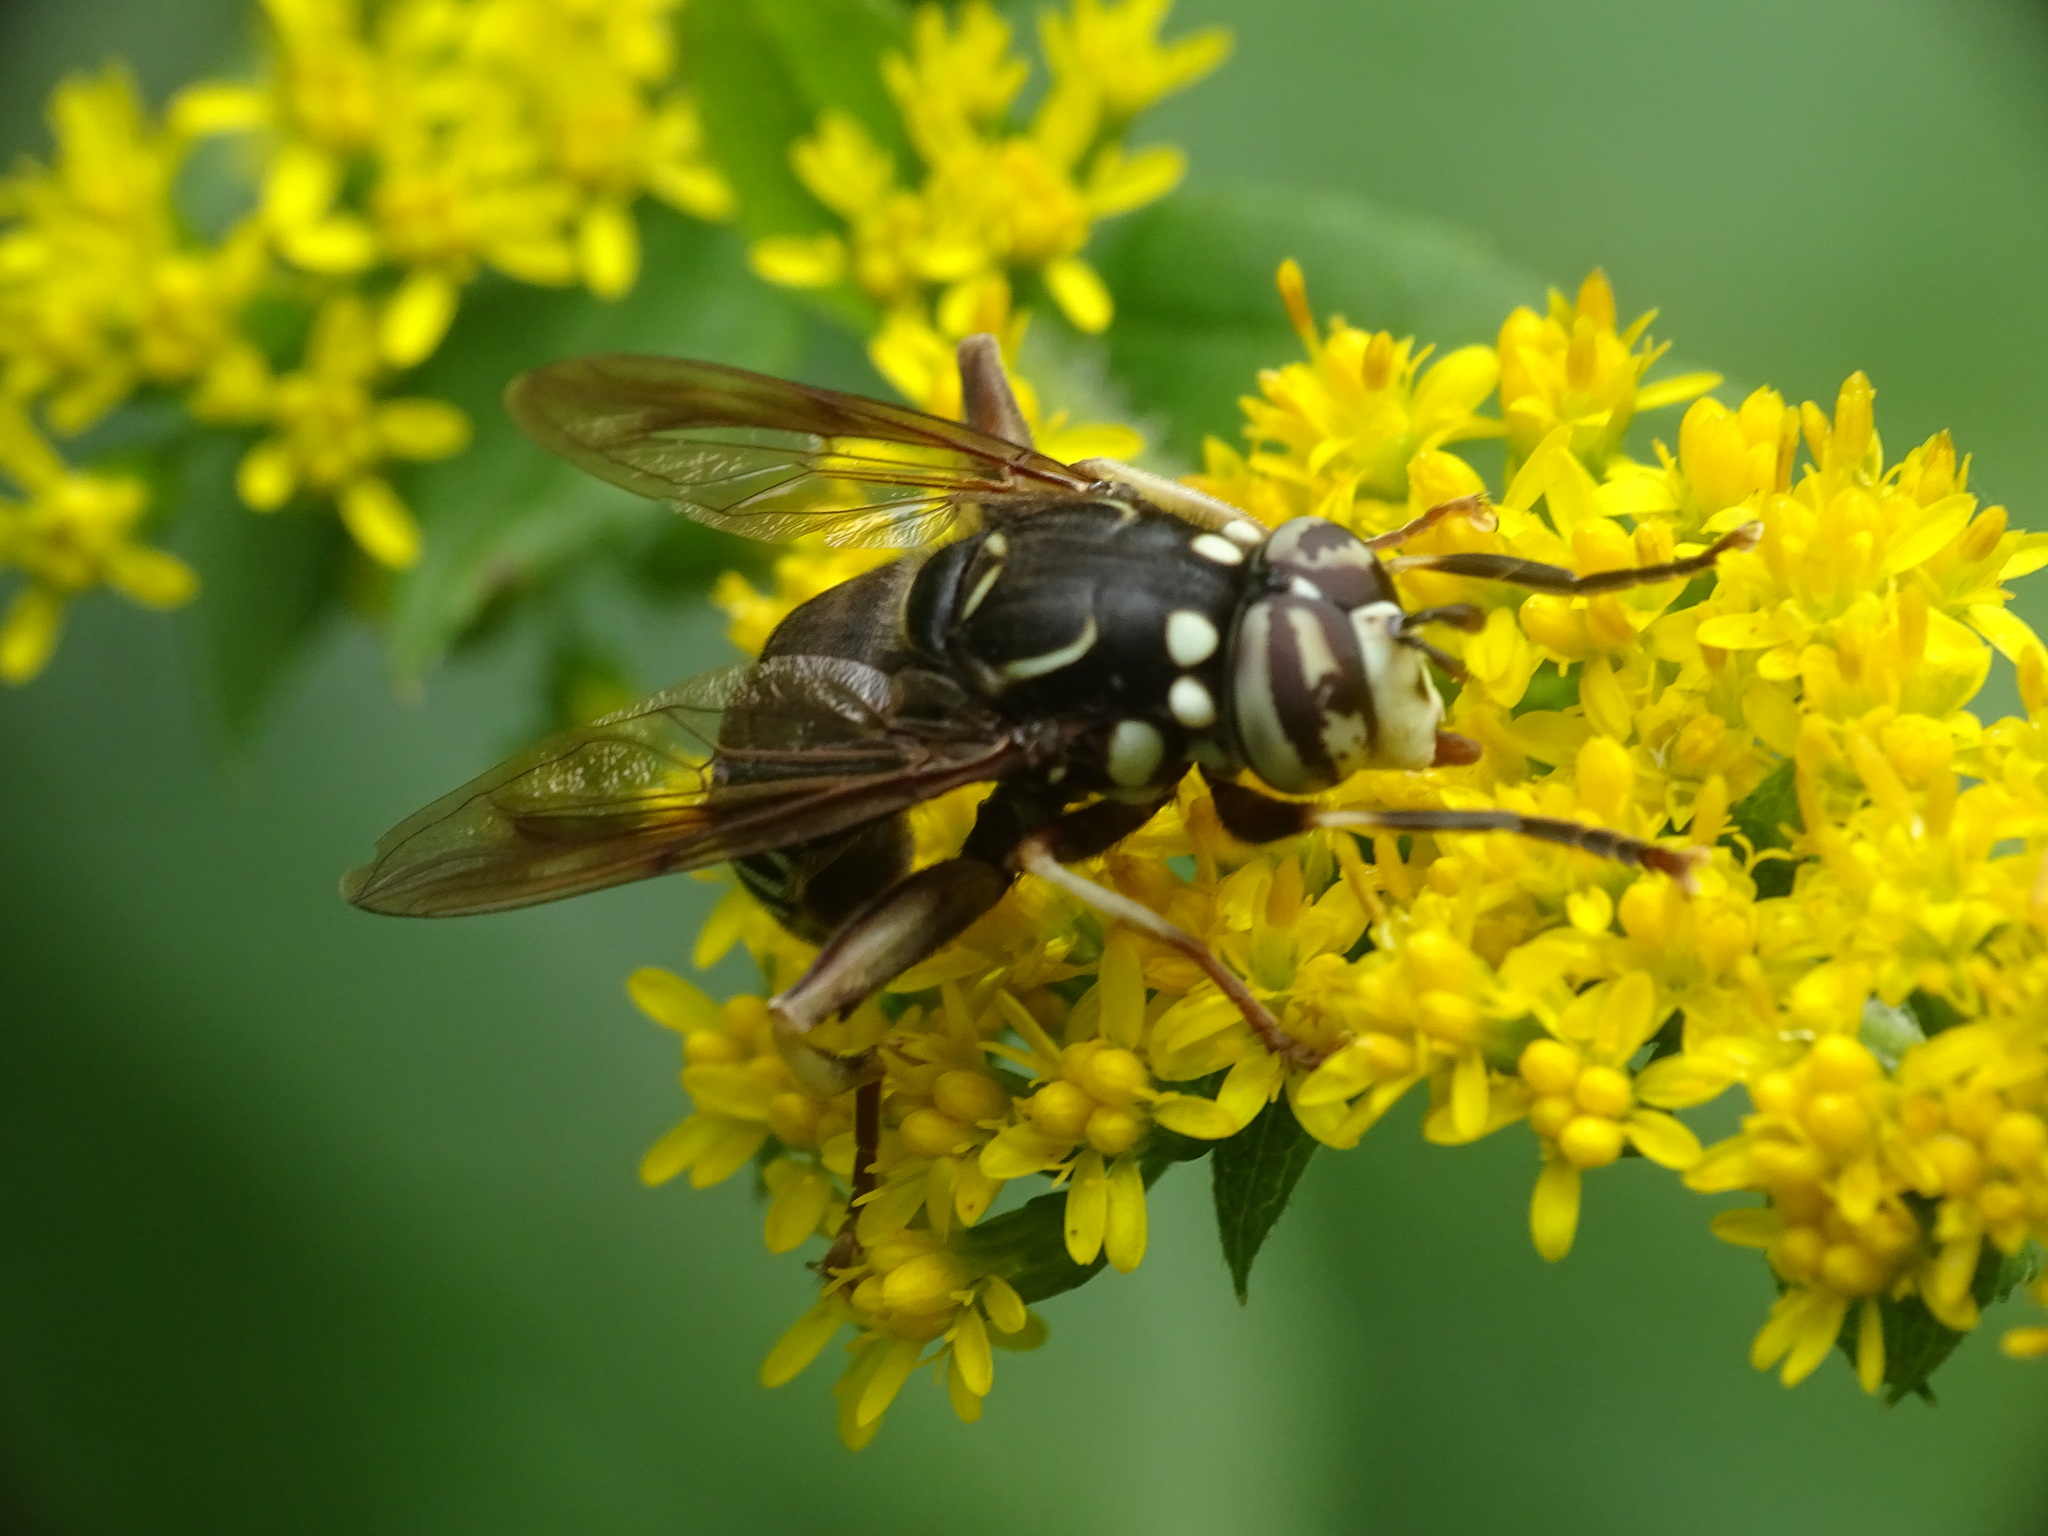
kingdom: Animalia
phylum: Arthropoda
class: Insecta
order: Diptera
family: Syrphidae
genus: Spilomyia
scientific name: Spilomyia fusca
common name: Bald-faced hornet fly
